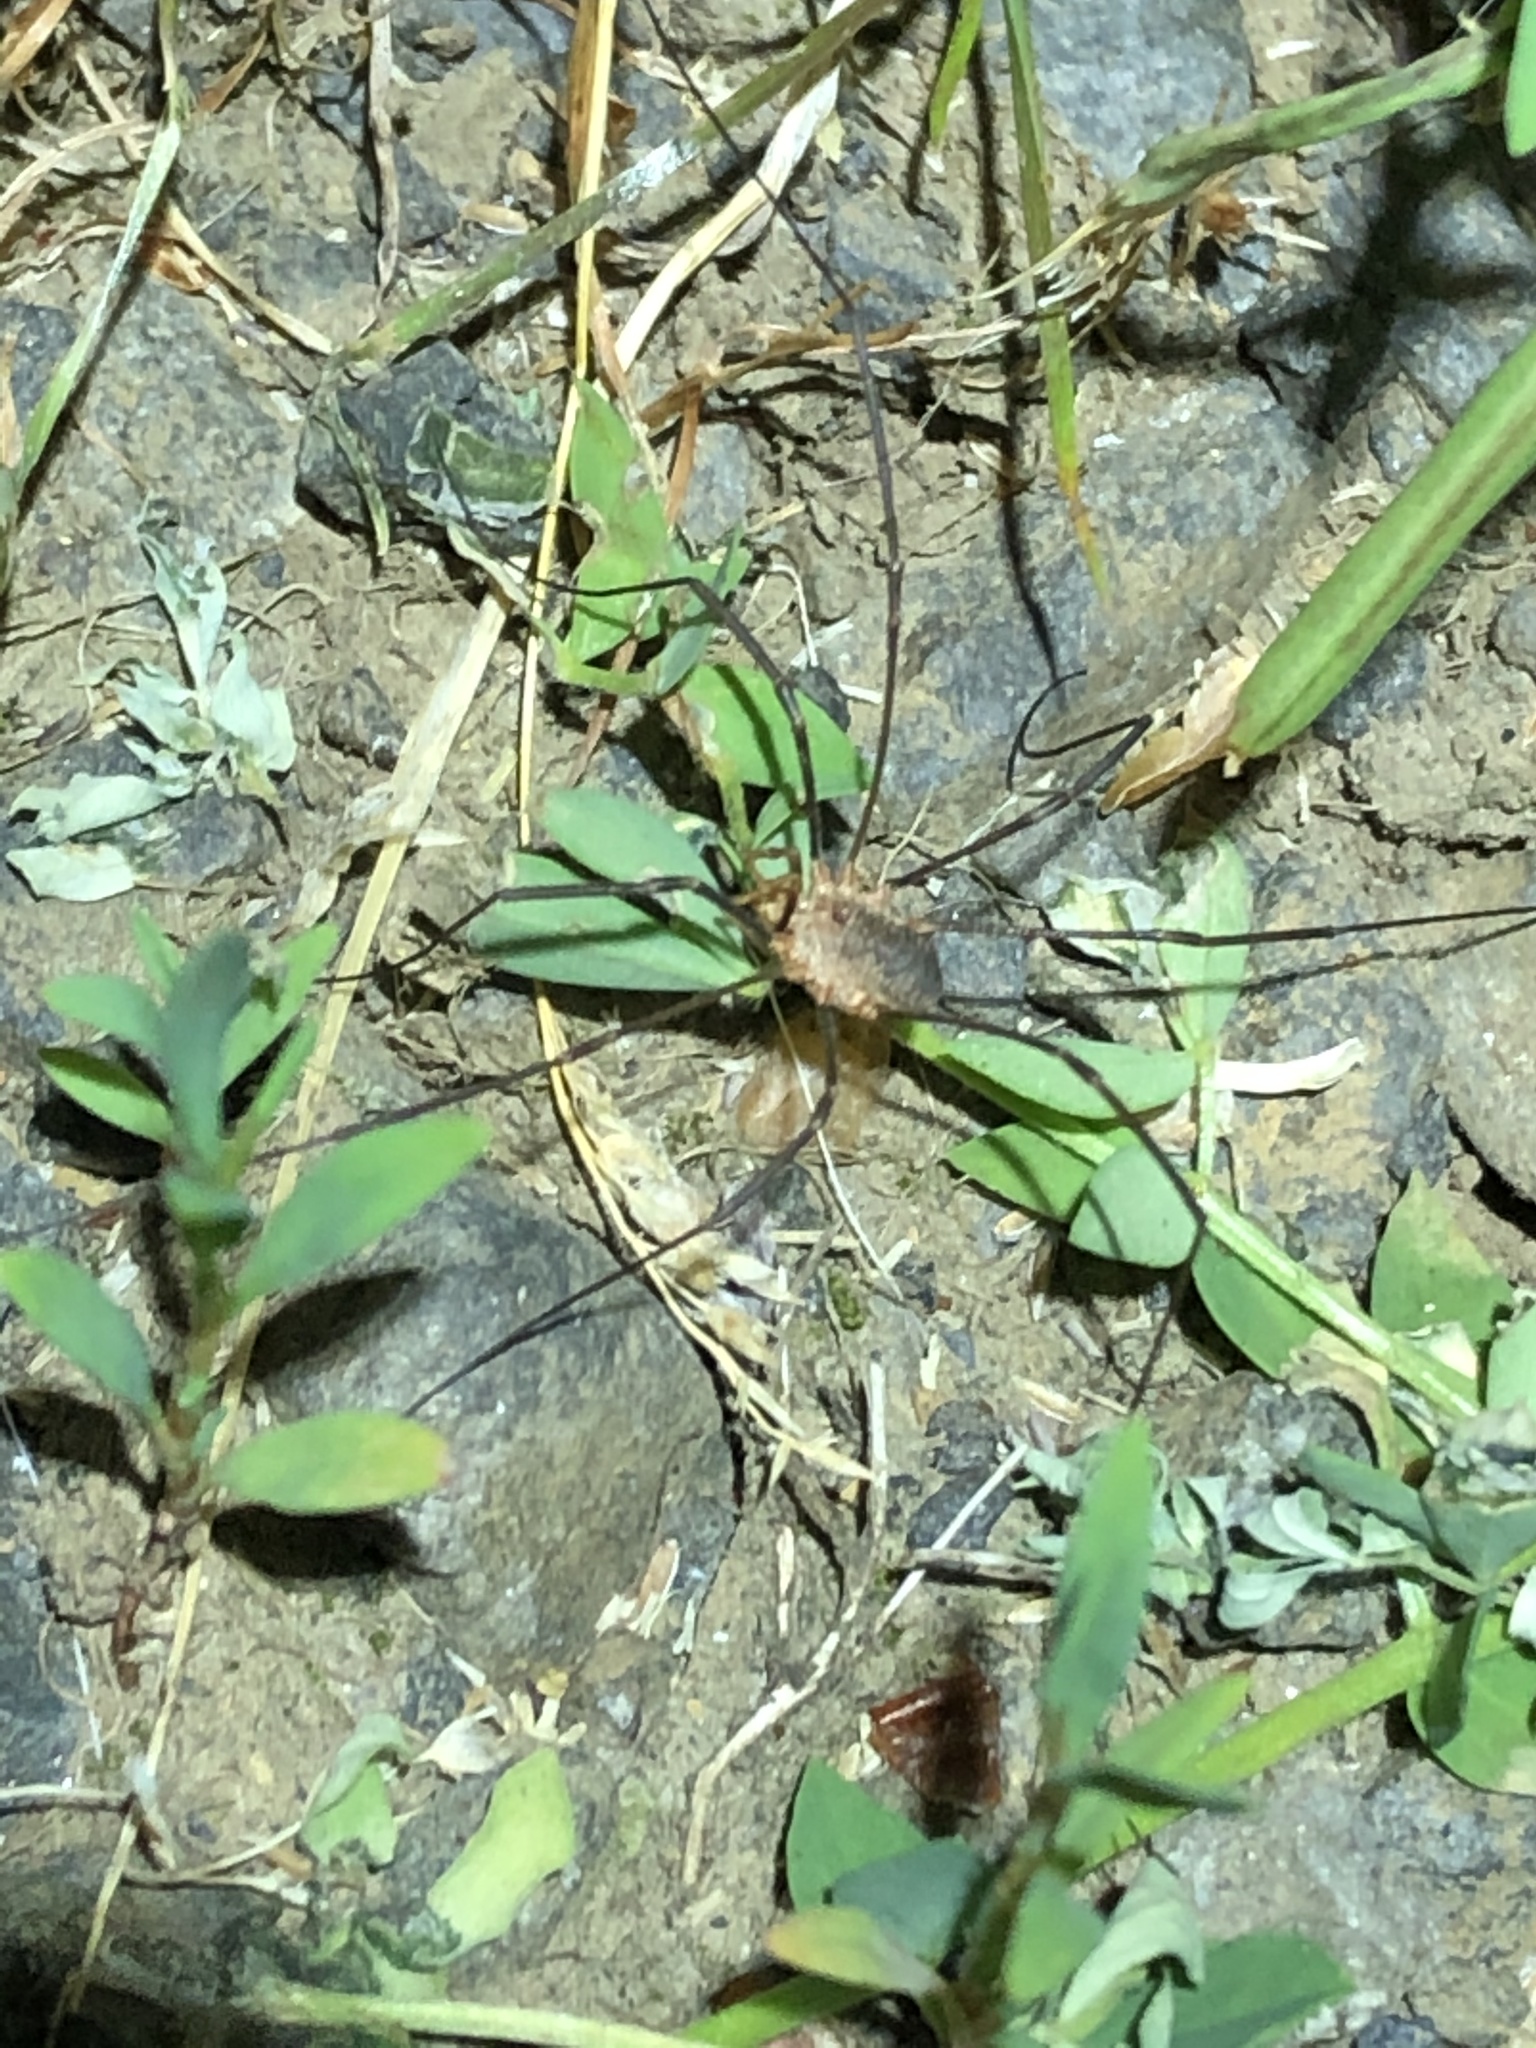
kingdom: Animalia
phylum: Arthropoda
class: Arachnida
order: Opiliones
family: Phalangiidae
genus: Phalangium
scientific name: Phalangium opilio
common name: Daddy longleg
